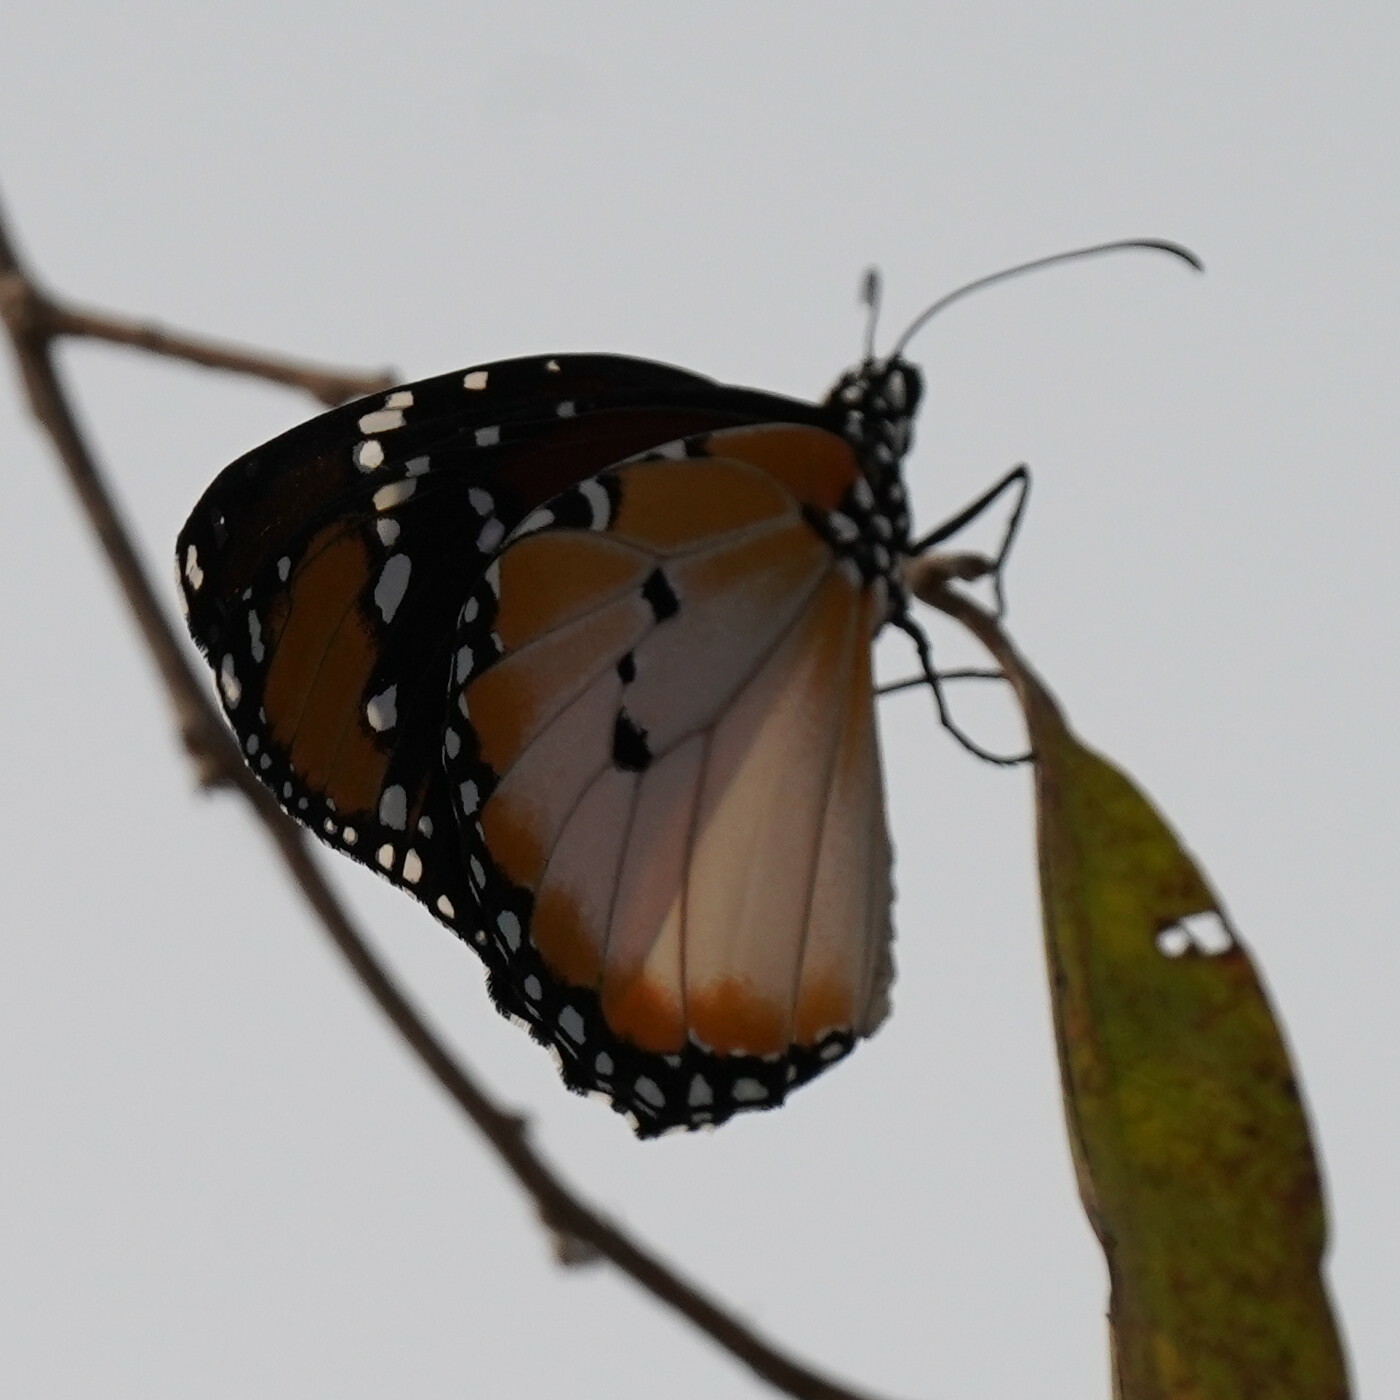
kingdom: Animalia
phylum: Arthropoda
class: Insecta
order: Lepidoptera
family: Nymphalidae
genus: Danaus
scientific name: Danaus chrysippus
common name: Plain tiger
